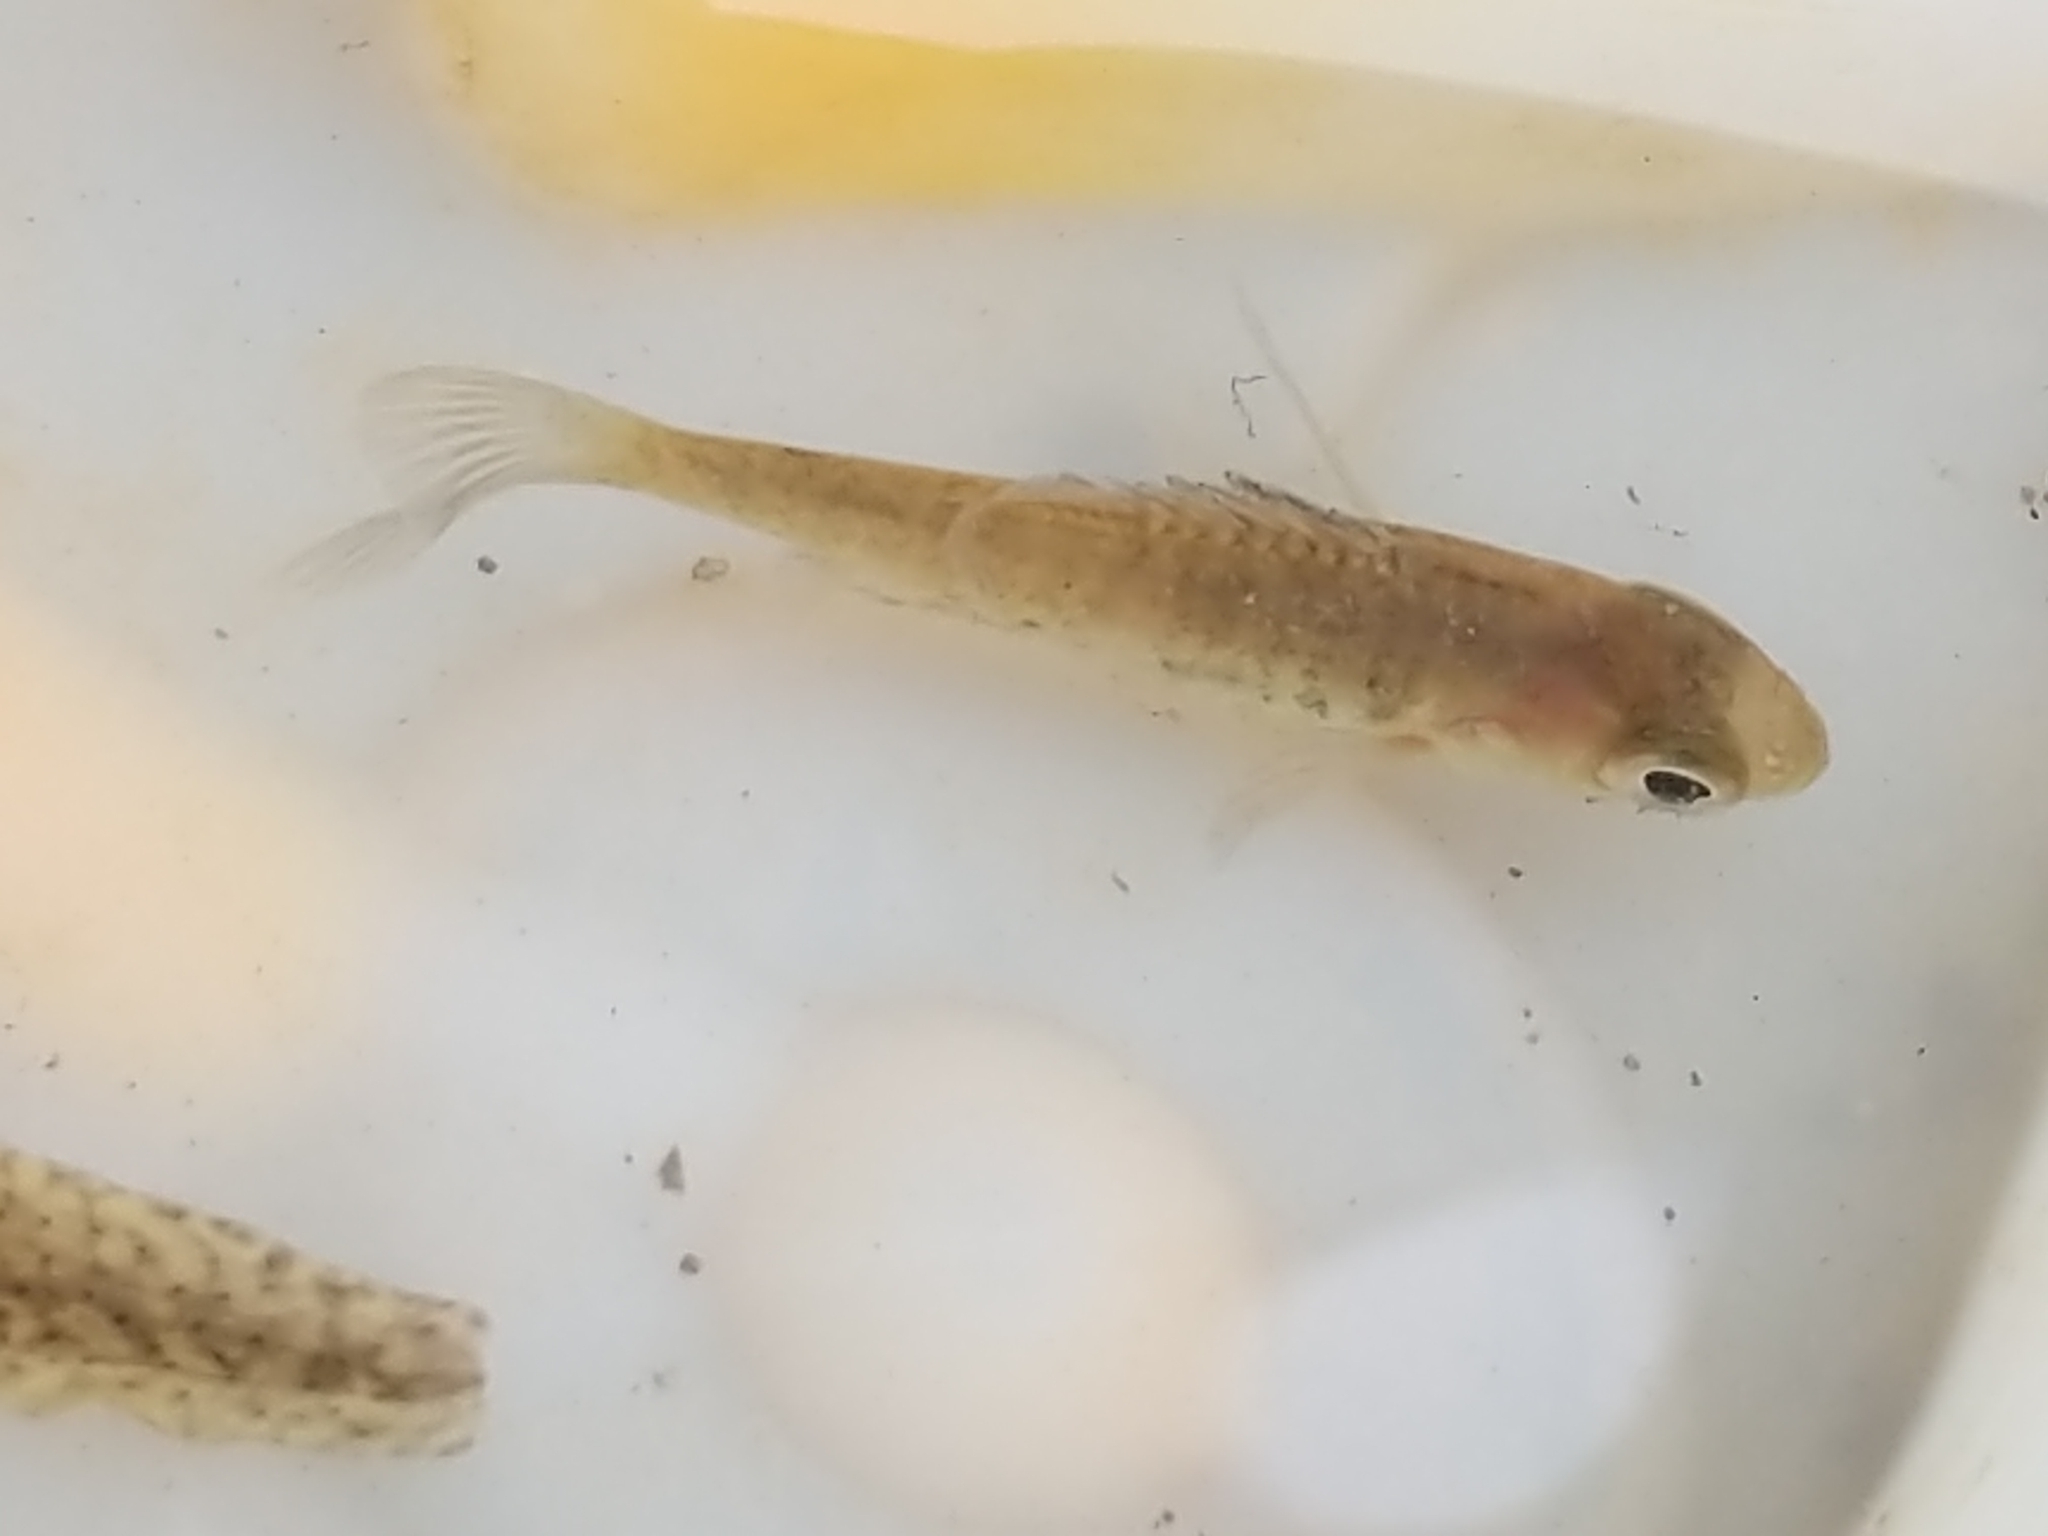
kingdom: Animalia
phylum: Chordata
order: Perciformes
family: Centrarchidae
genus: Lepomis
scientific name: Lepomis
